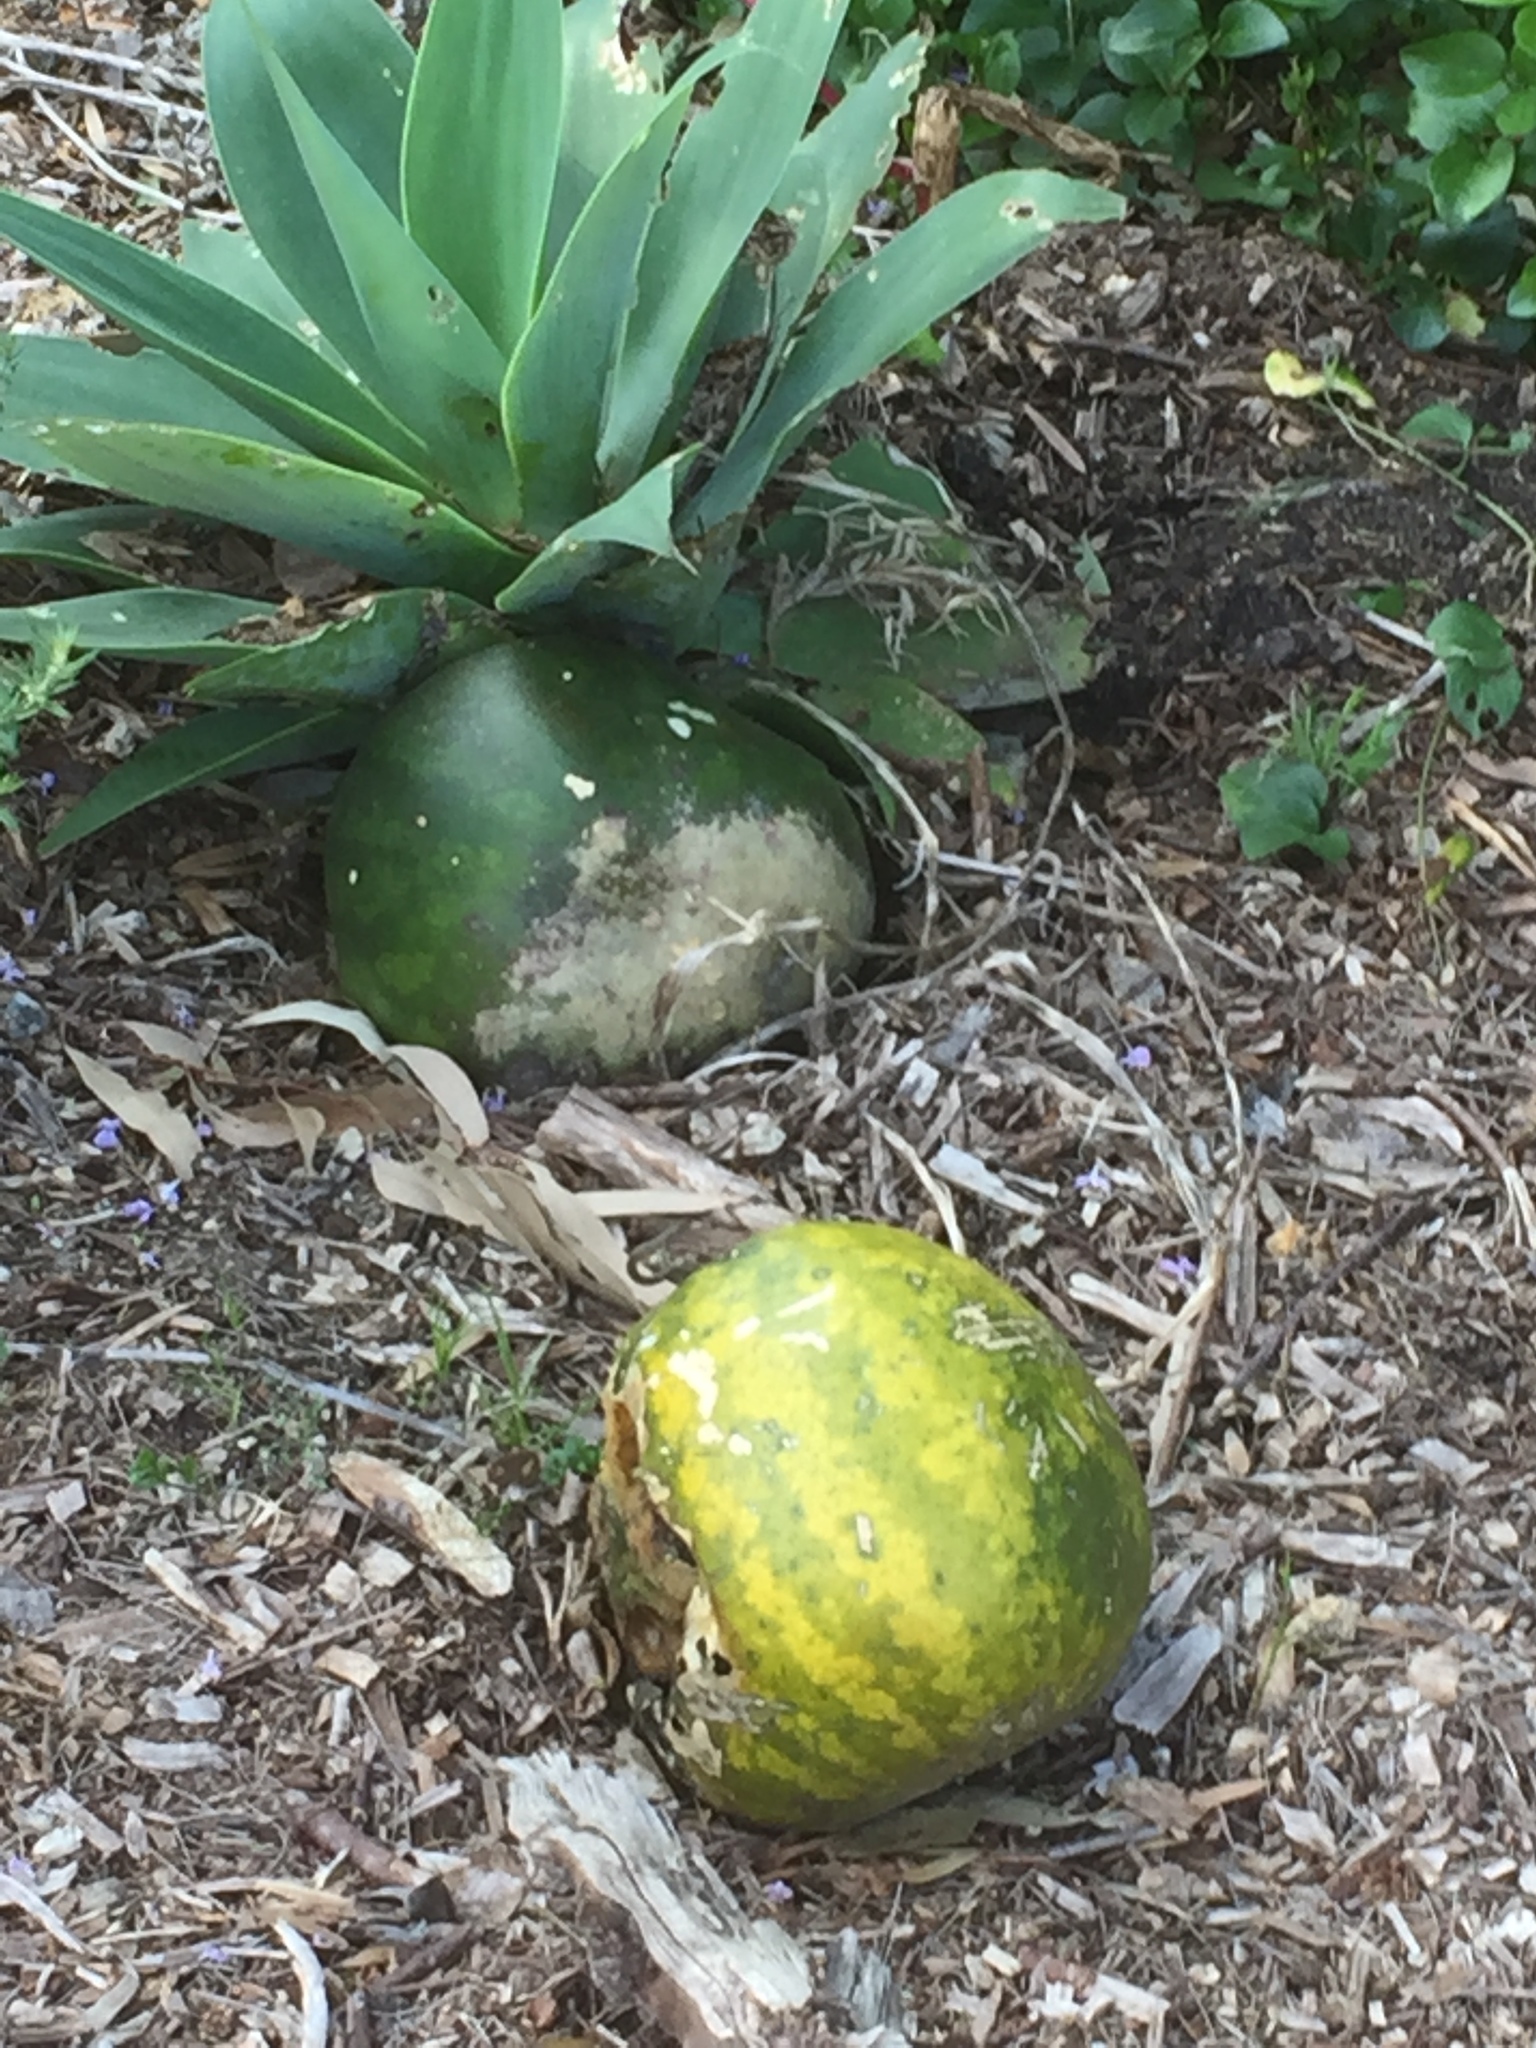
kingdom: Plantae
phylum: Tracheophyta
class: Magnoliopsida
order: Cucurbitales
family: Cucurbitaceae
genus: Citrullus
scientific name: Citrullus amarus
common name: Fodder-melon
